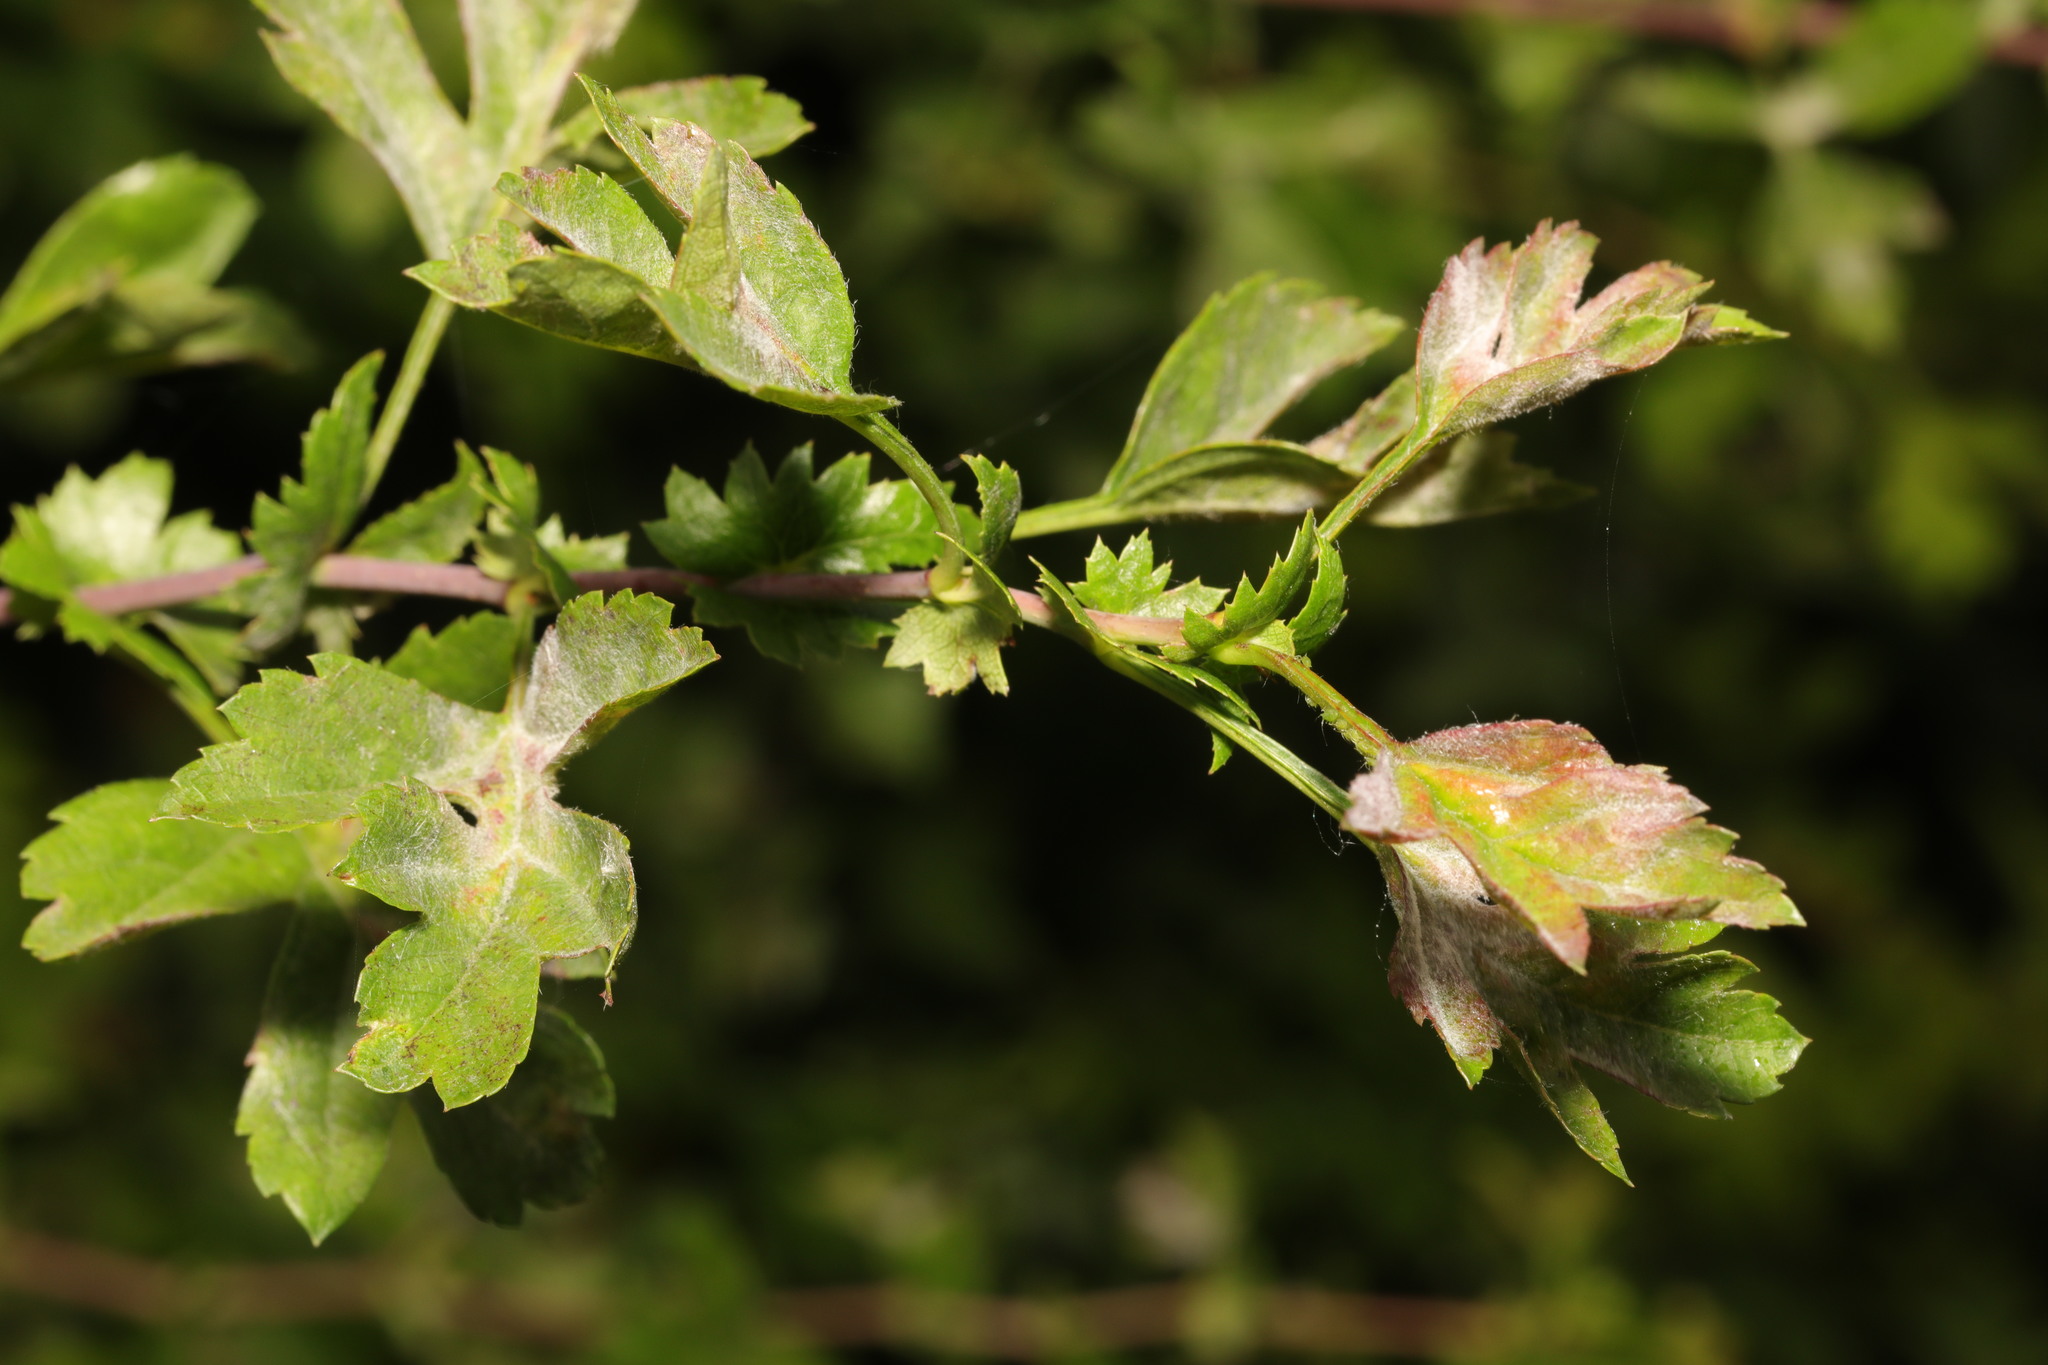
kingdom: Fungi
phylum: Ascomycota
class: Leotiomycetes
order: Helotiales
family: Erysiphaceae
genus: Podosphaera
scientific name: Podosphaera clandestina
